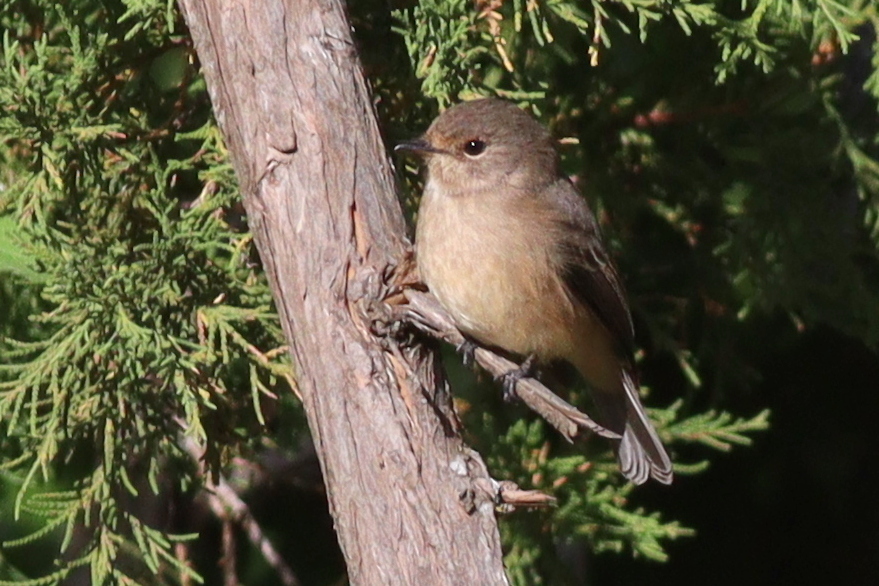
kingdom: Animalia
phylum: Chordata
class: Aves
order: Passeriformes
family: Muscicapidae
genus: Muscicapa
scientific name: Muscicapa adusta
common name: African dusky flycatcher
